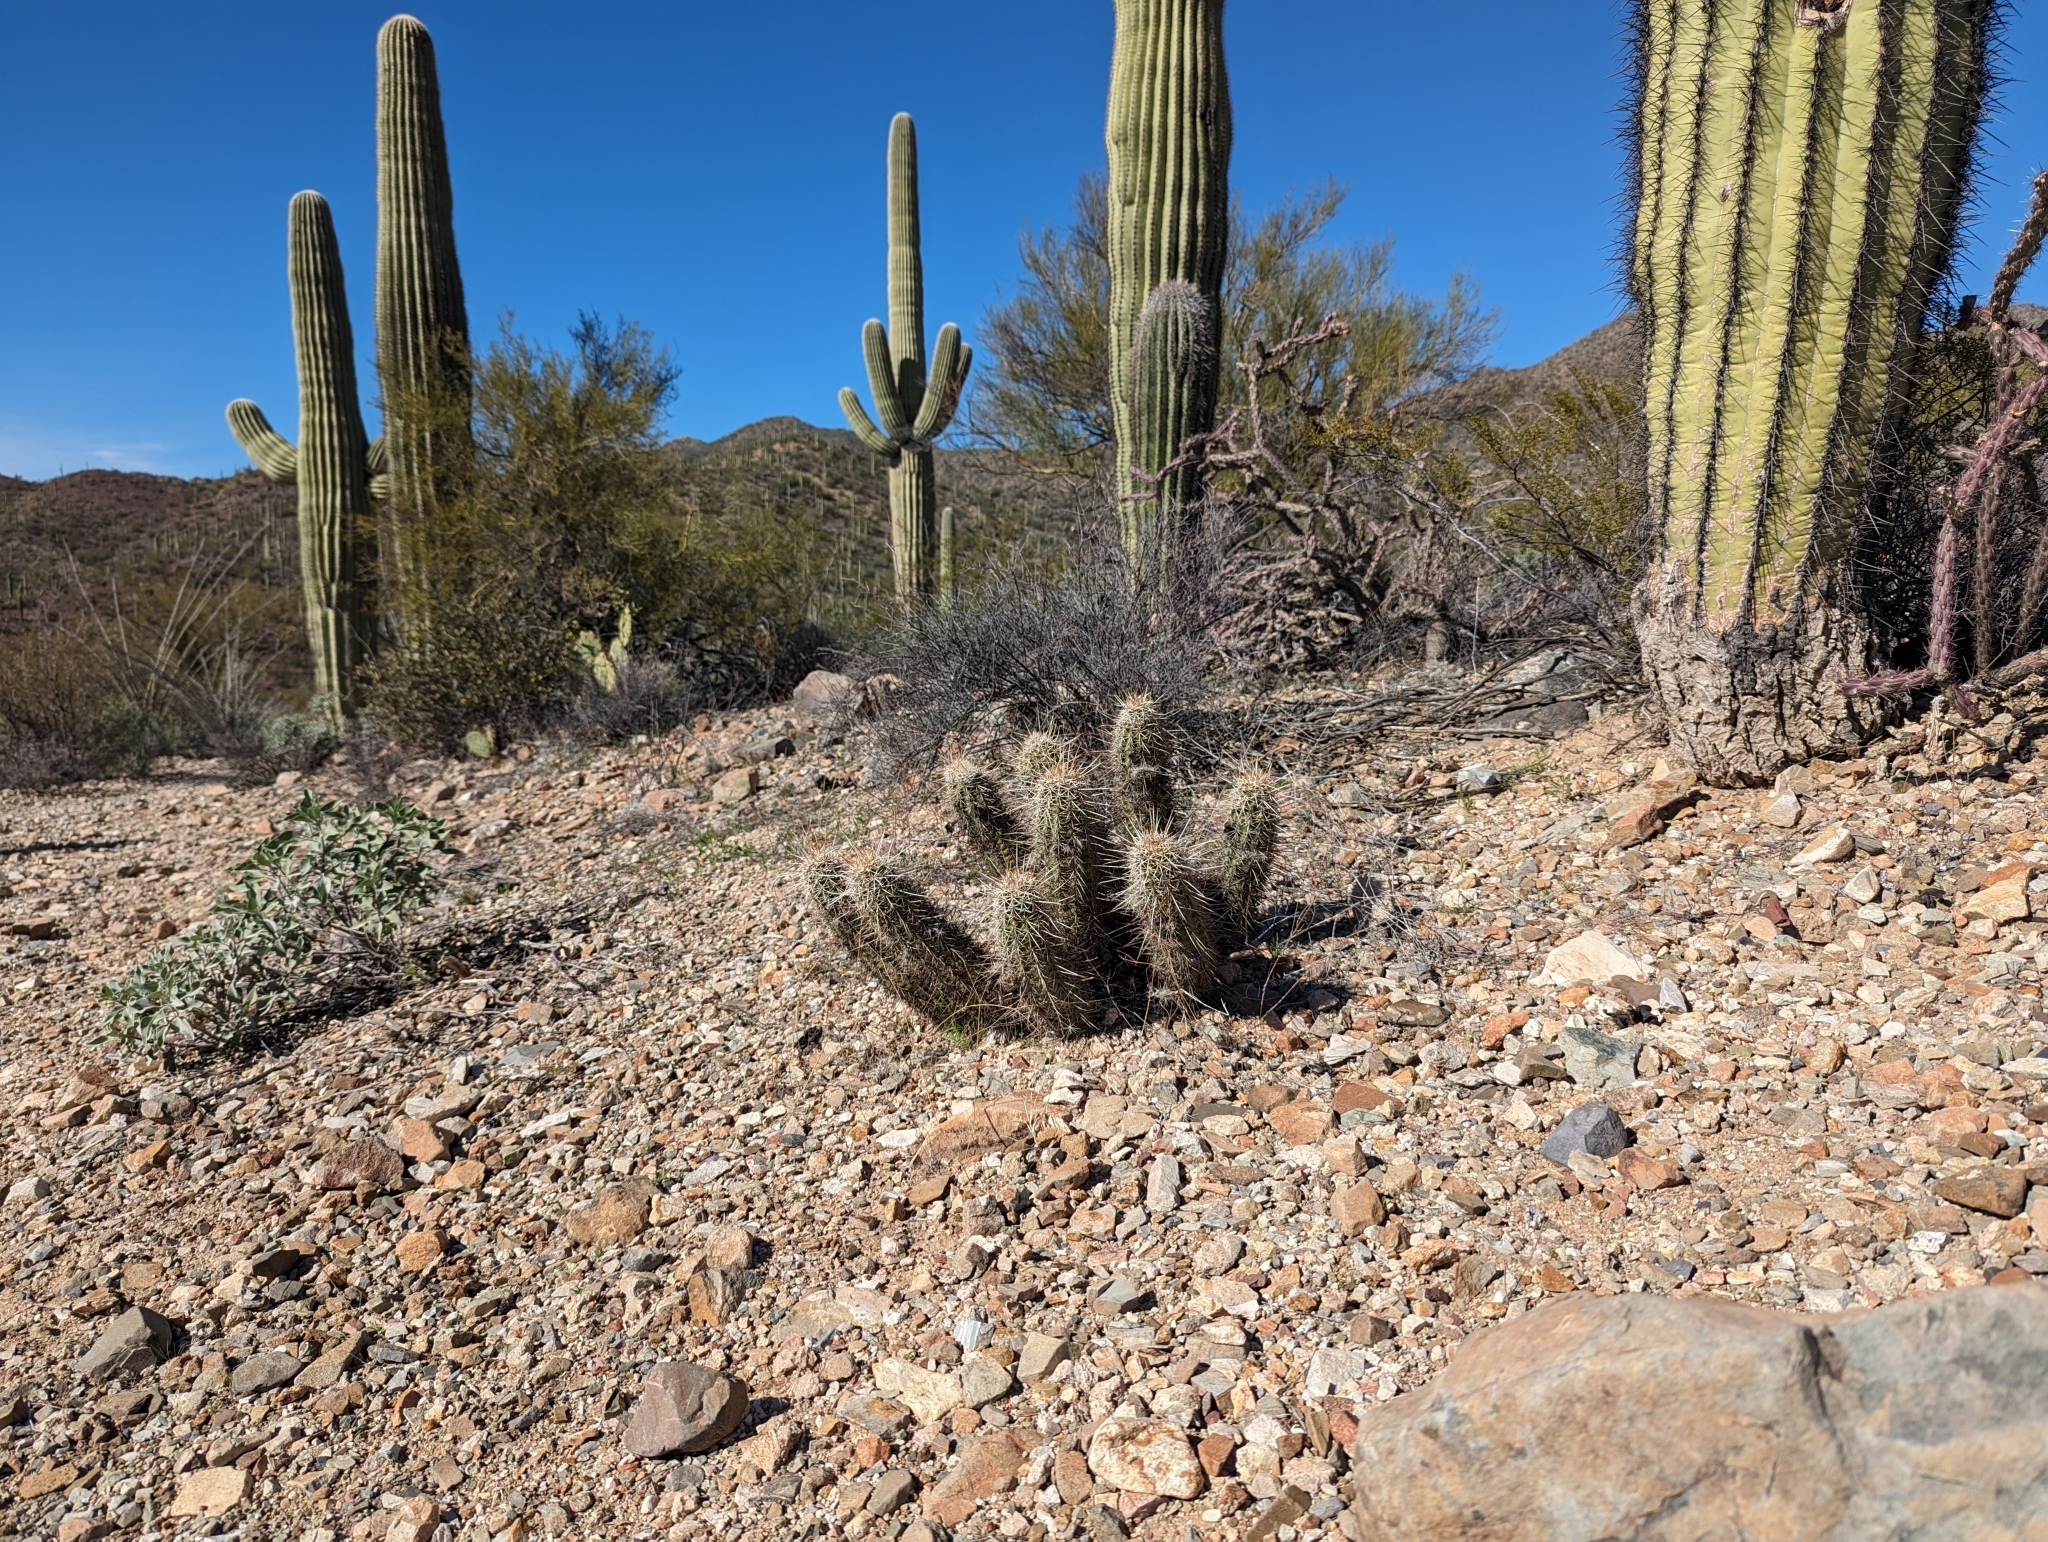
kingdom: Plantae
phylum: Tracheophyta
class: Magnoliopsida
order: Caryophyllales
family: Cactaceae
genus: Echinocereus
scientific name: Echinocereus fasciculatus
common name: Bundle hedgehog
